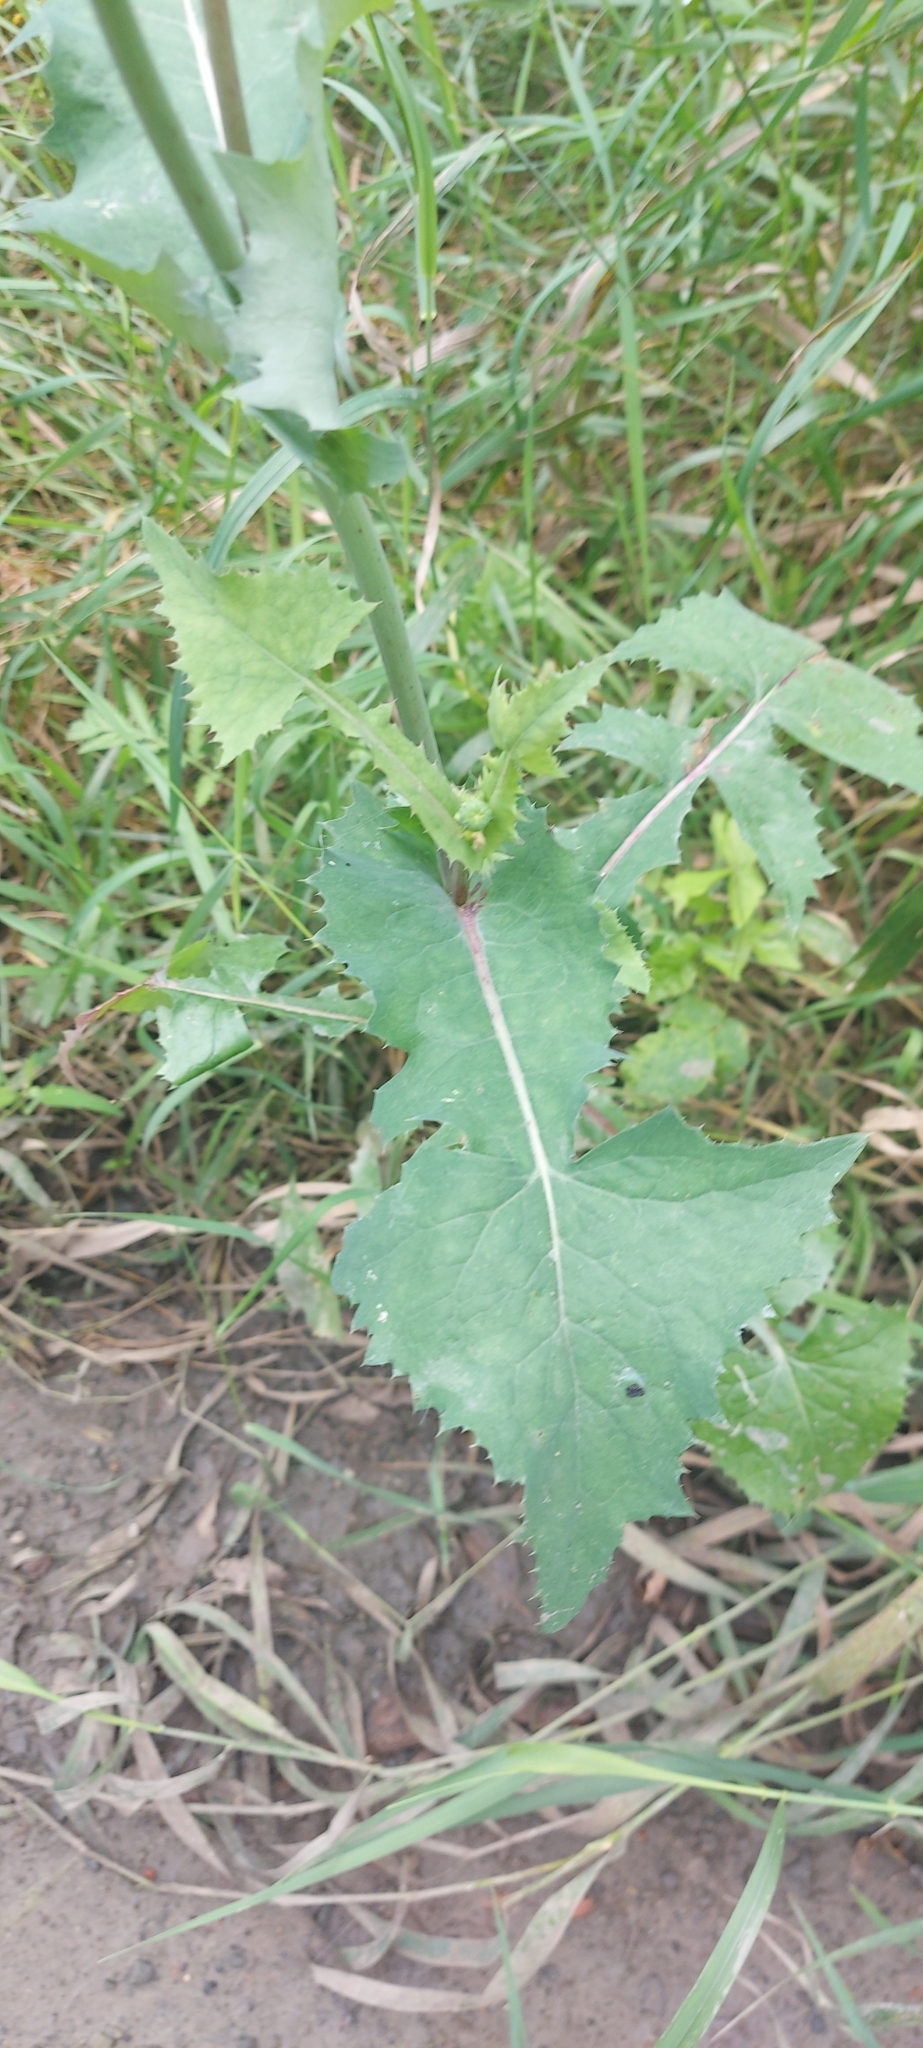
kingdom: Plantae
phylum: Tracheophyta
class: Magnoliopsida
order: Asterales
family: Asteraceae
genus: Sonchus
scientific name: Sonchus oleraceus
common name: Common sowthistle
